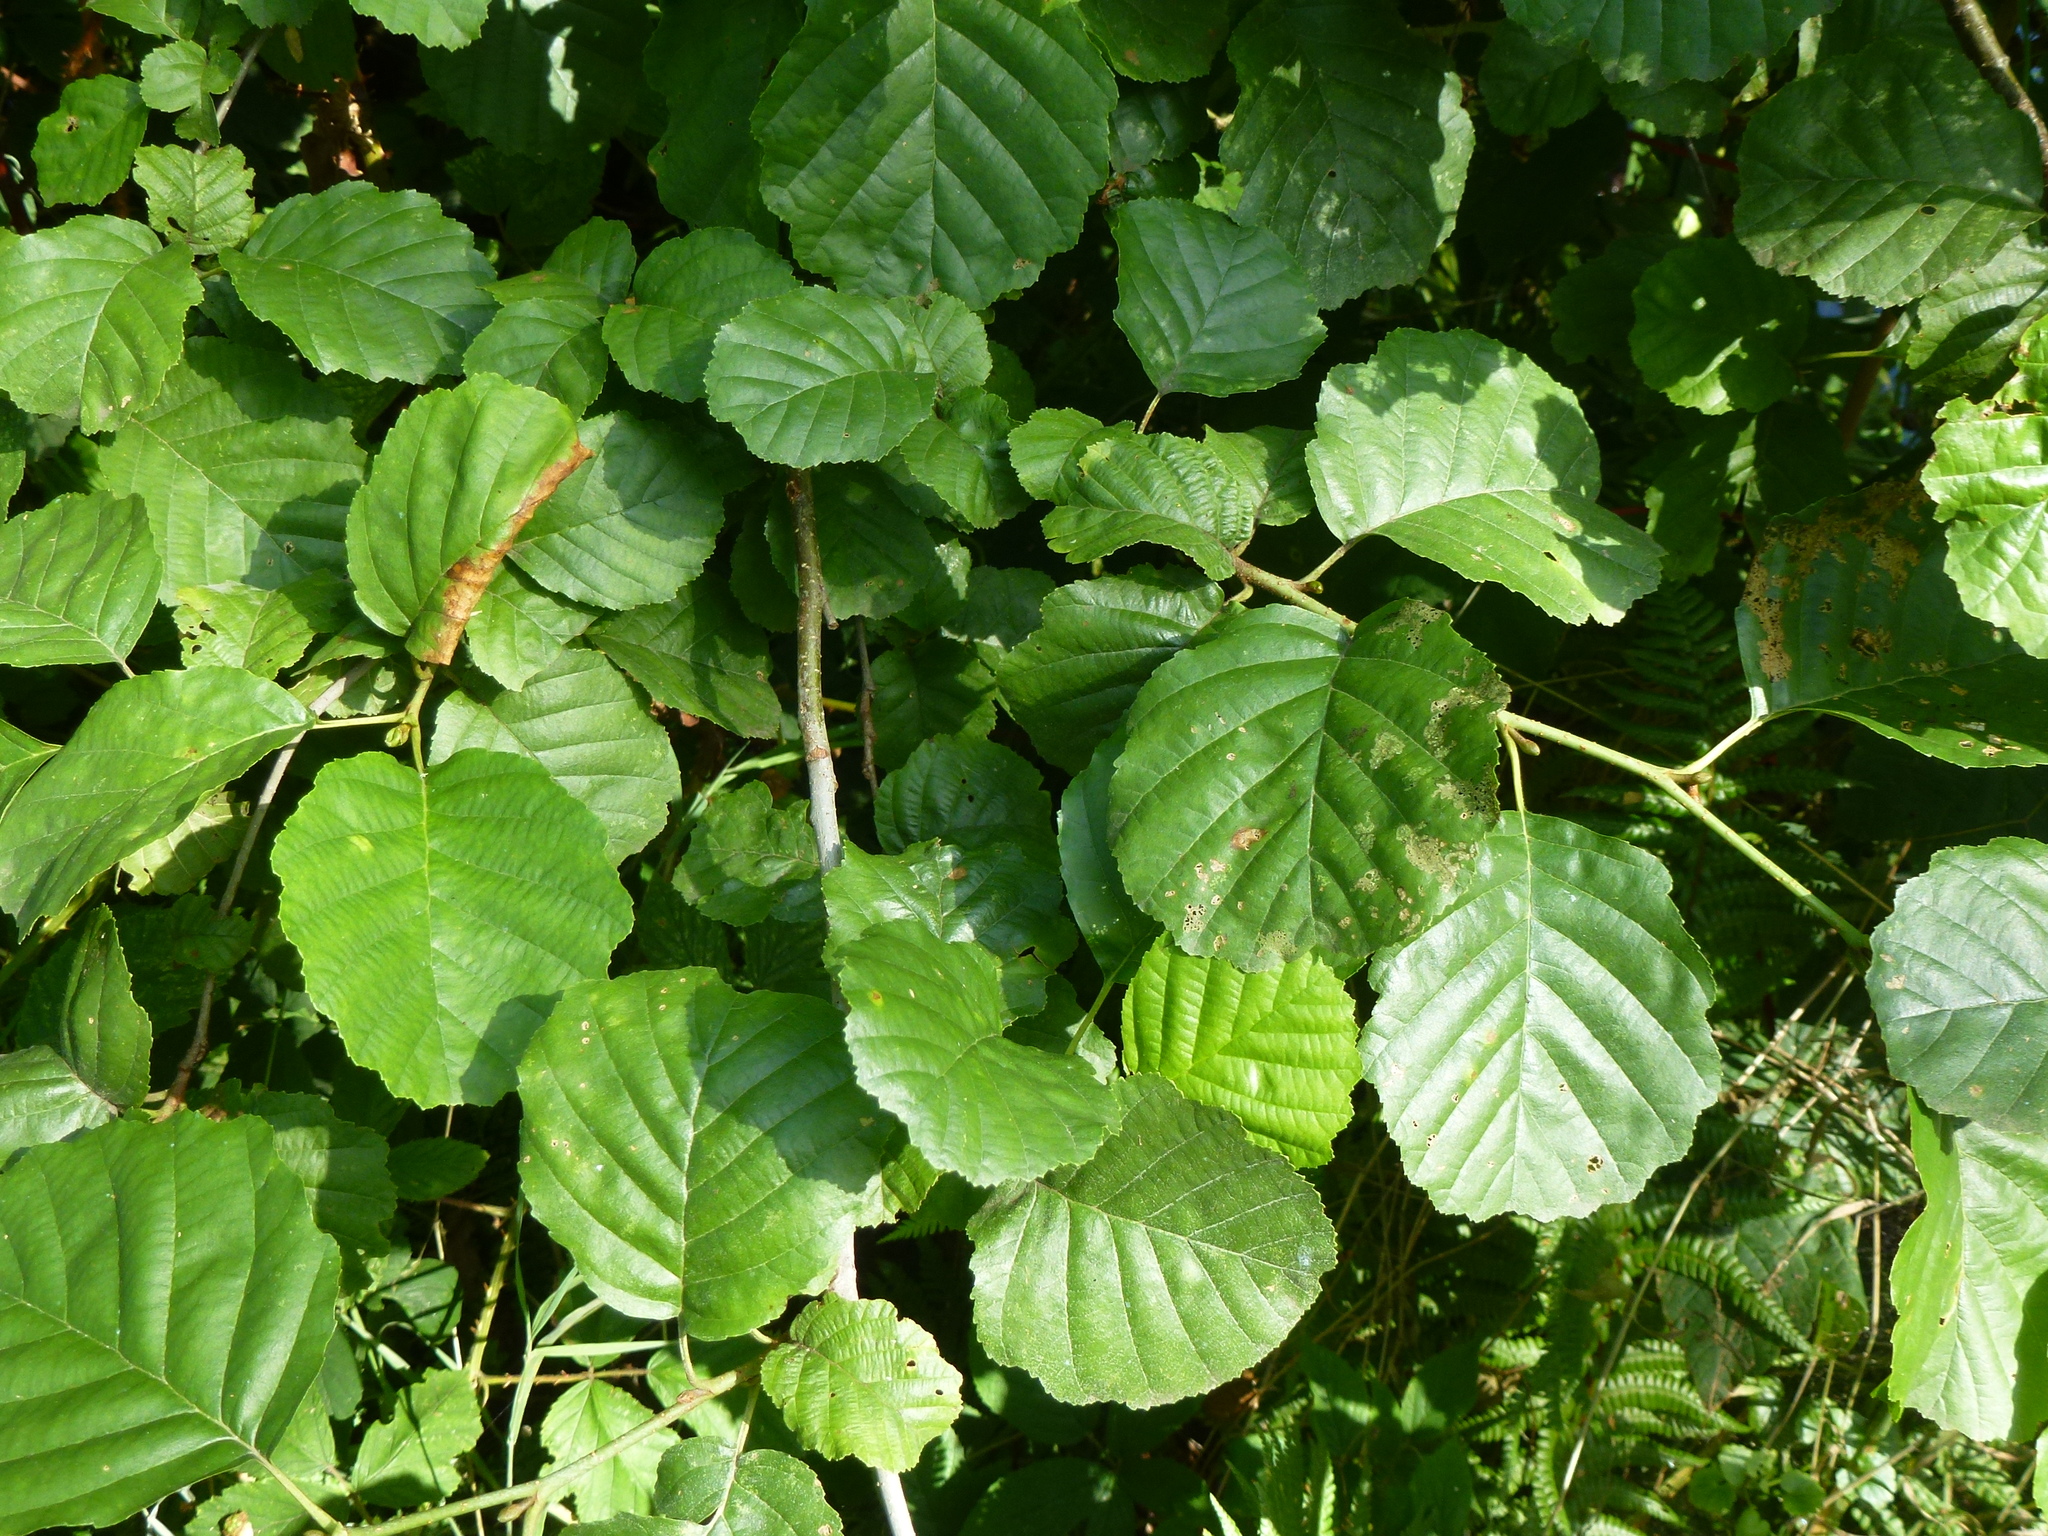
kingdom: Plantae
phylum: Tracheophyta
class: Magnoliopsida
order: Fagales
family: Betulaceae
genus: Alnus
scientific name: Alnus glutinosa
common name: Black alder
